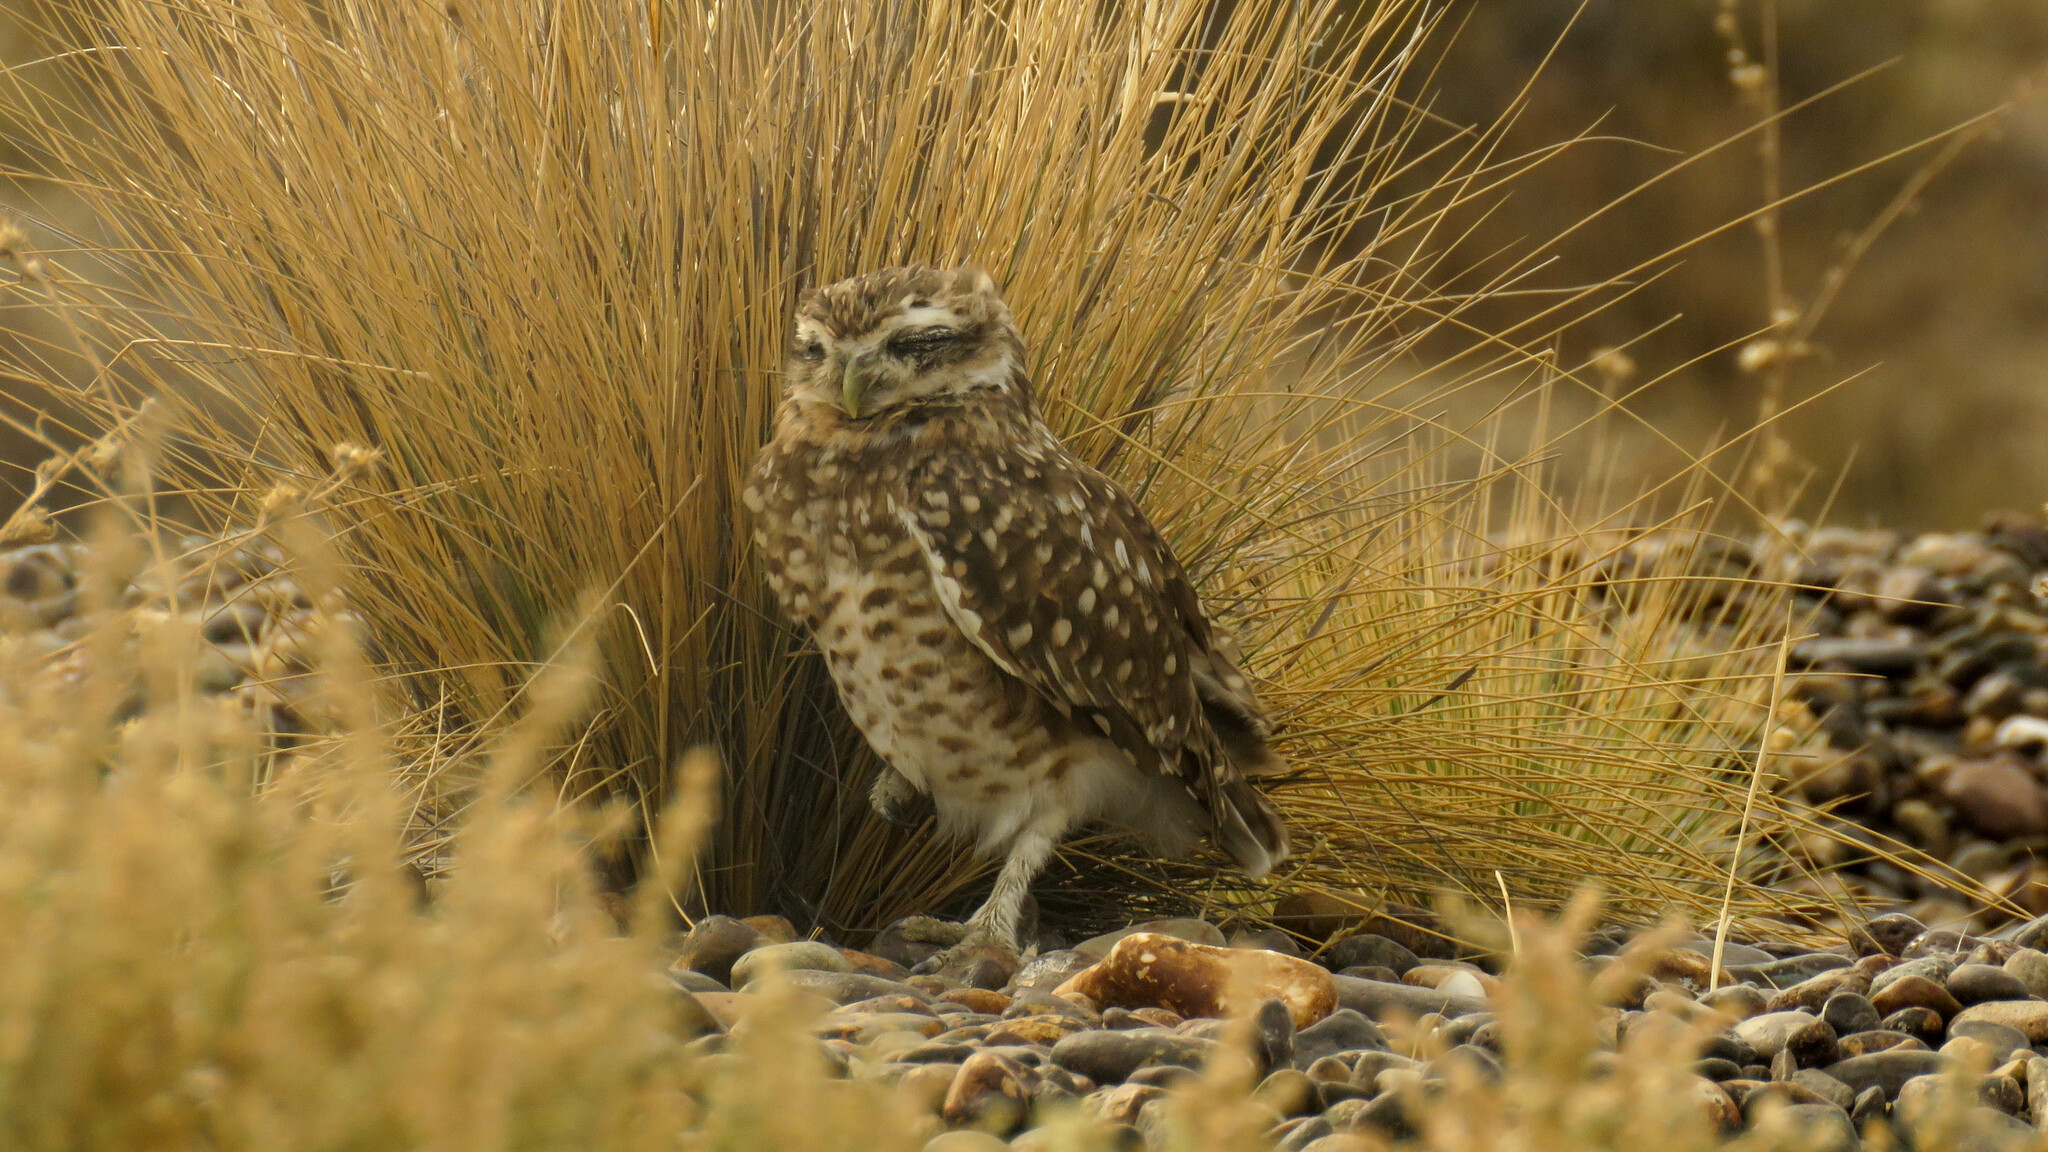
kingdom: Animalia
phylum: Chordata
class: Aves
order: Strigiformes
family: Strigidae
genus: Athene
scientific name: Athene cunicularia
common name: Burrowing owl
